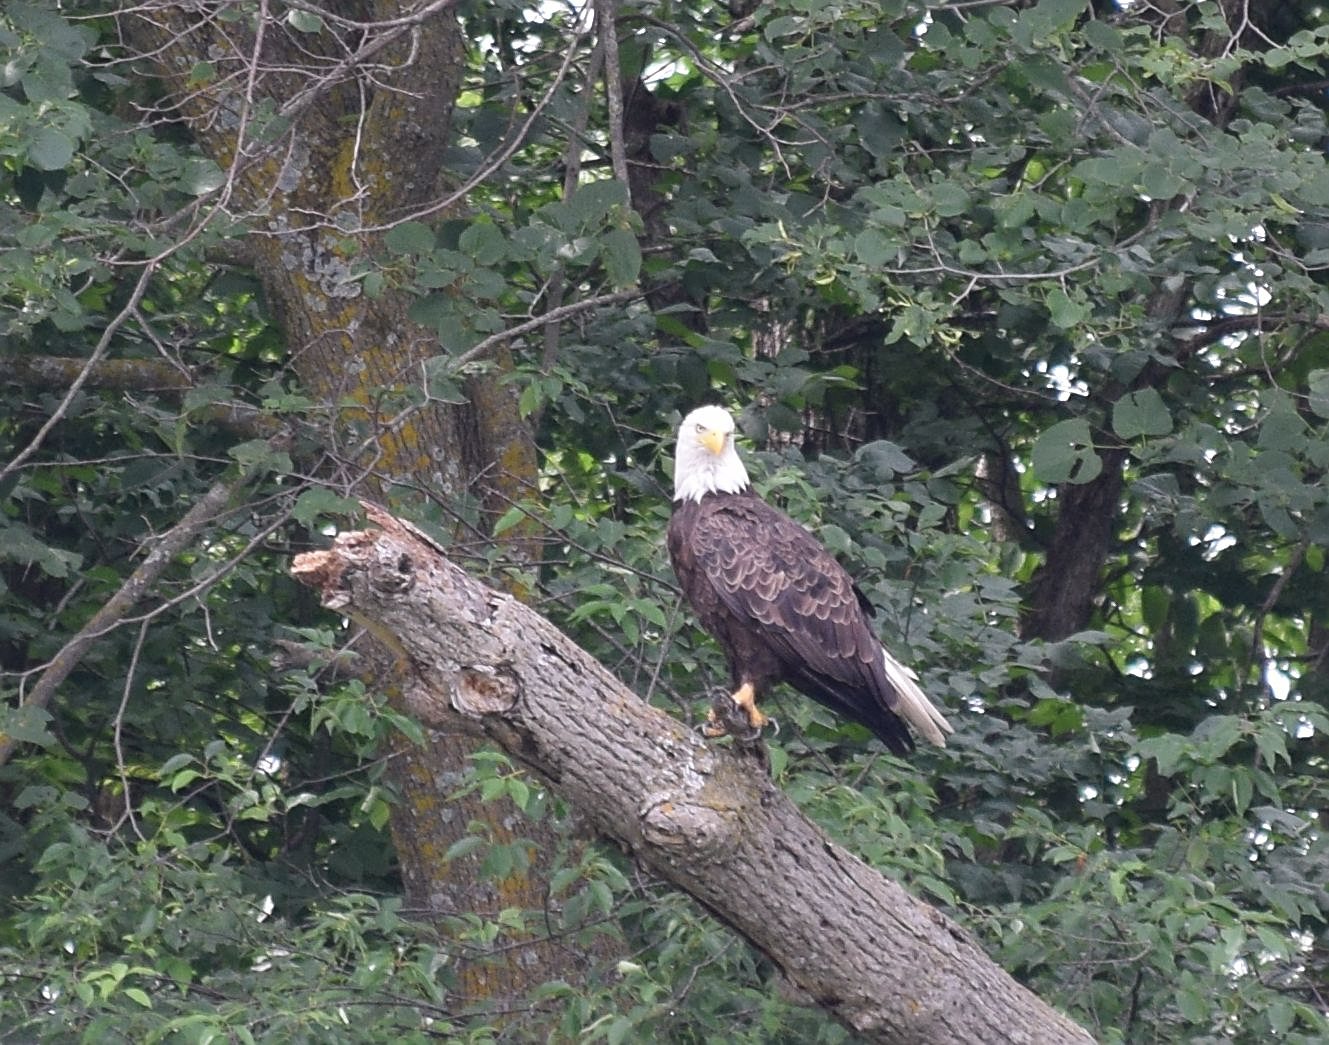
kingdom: Animalia
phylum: Chordata
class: Aves
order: Accipitriformes
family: Accipitridae
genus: Haliaeetus
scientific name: Haliaeetus leucocephalus
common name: Bald eagle
